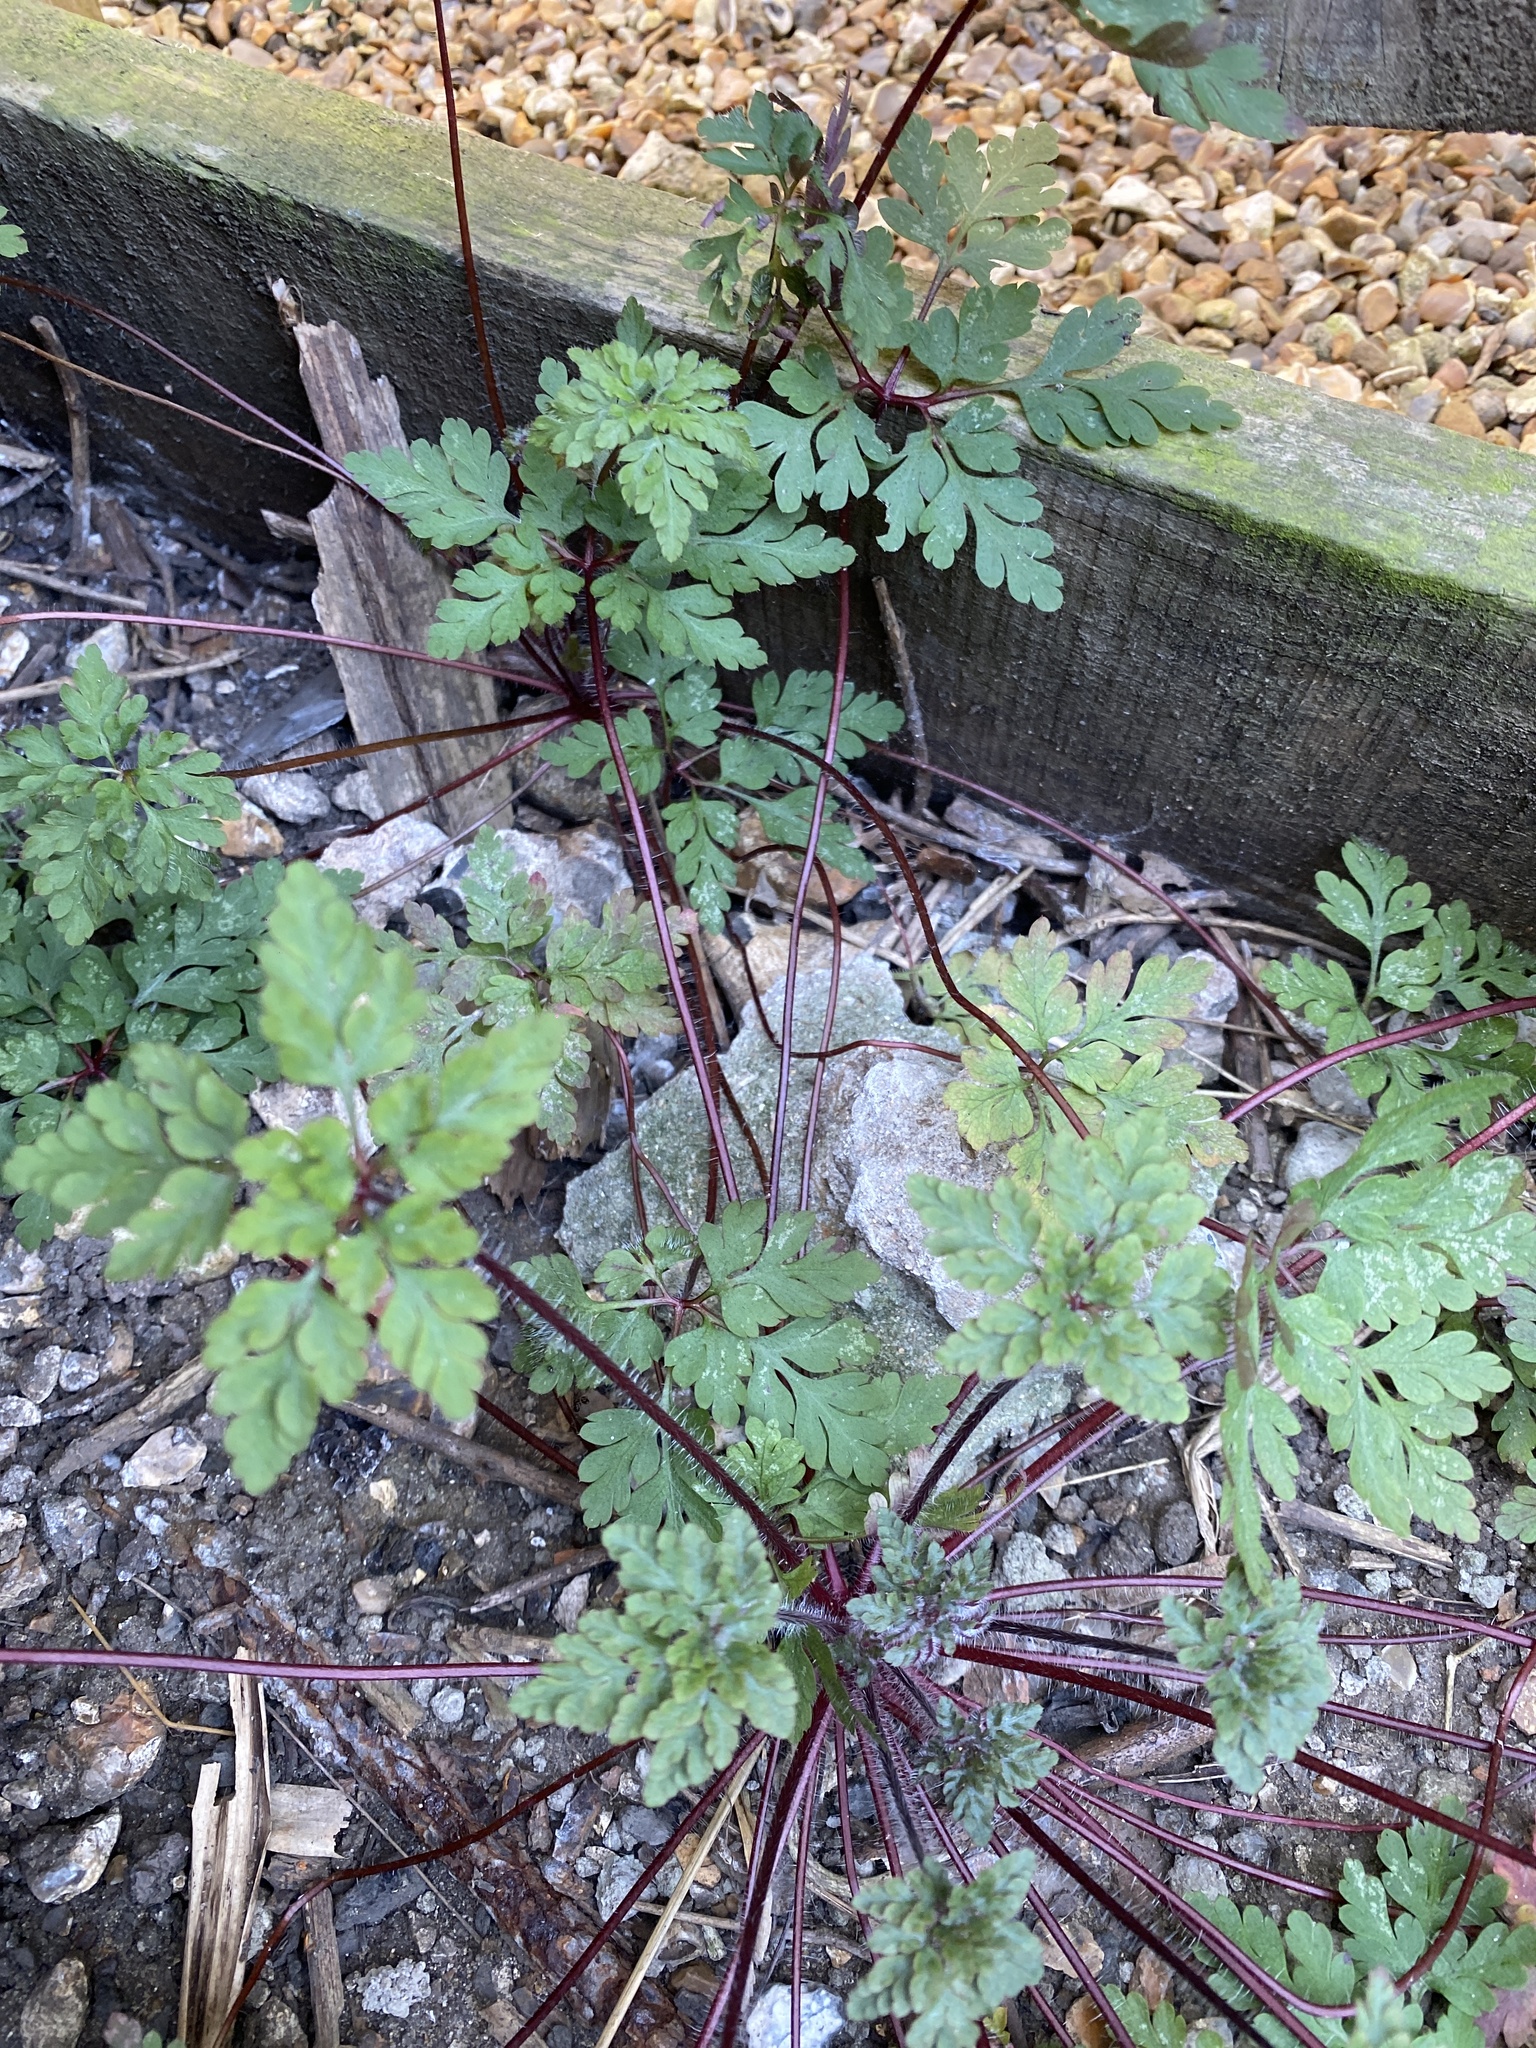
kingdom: Plantae
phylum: Tracheophyta
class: Magnoliopsida
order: Geraniales
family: Geraniaceae
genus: Geranium
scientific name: Geranium robertianum
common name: Herb-robert
